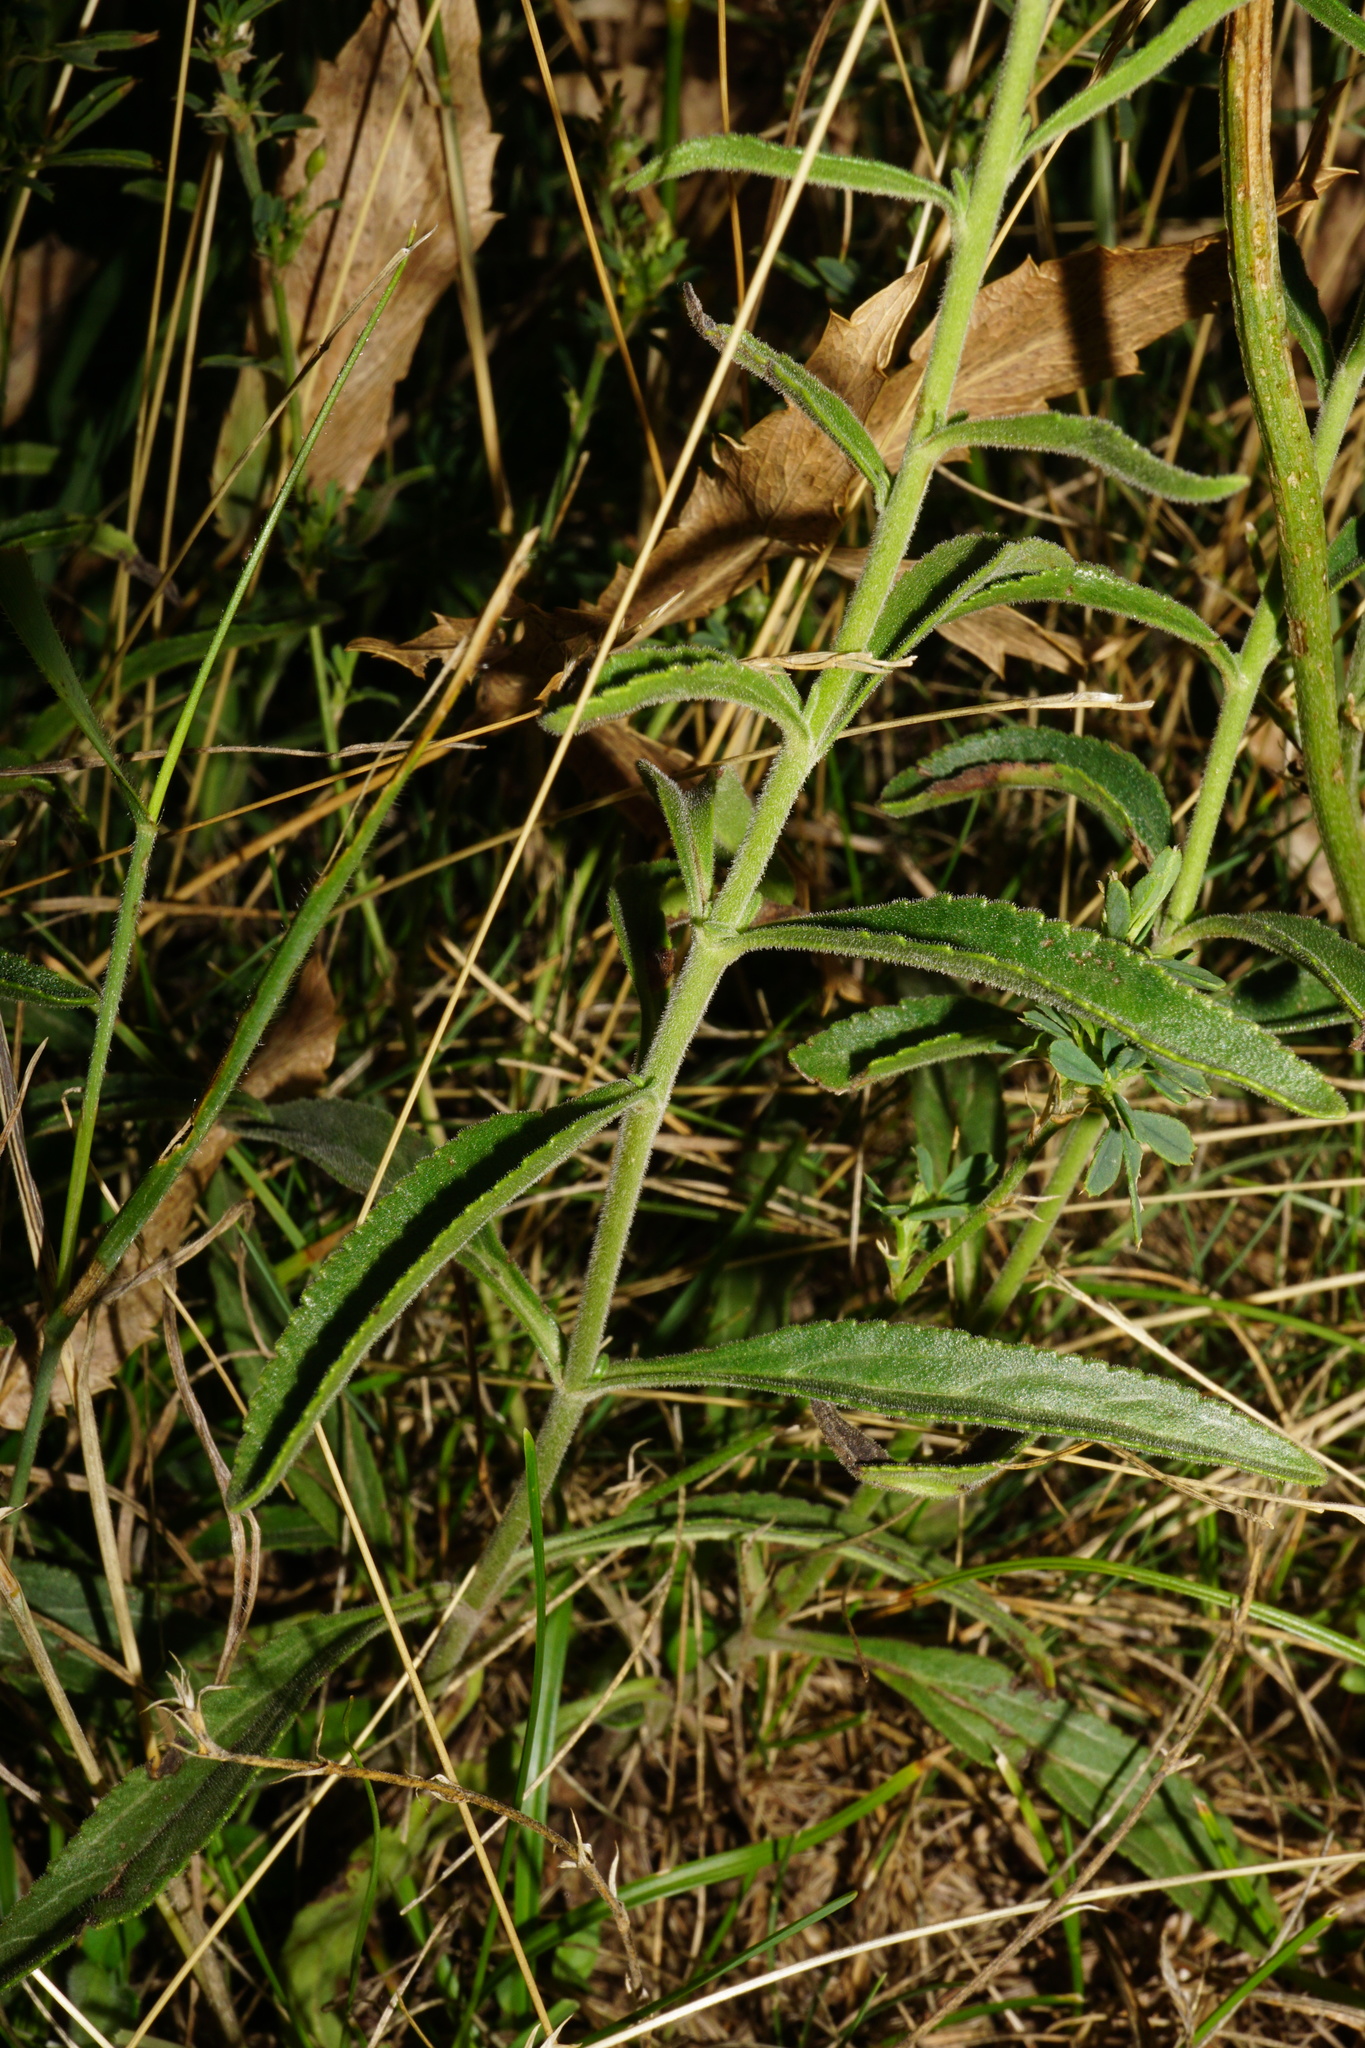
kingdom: Plantae
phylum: Tracheophyta
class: Magnoliopsida
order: Lamiales
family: Plantaginaceae
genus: Veronica
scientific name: Veronica spicata
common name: Spiked speedwell
